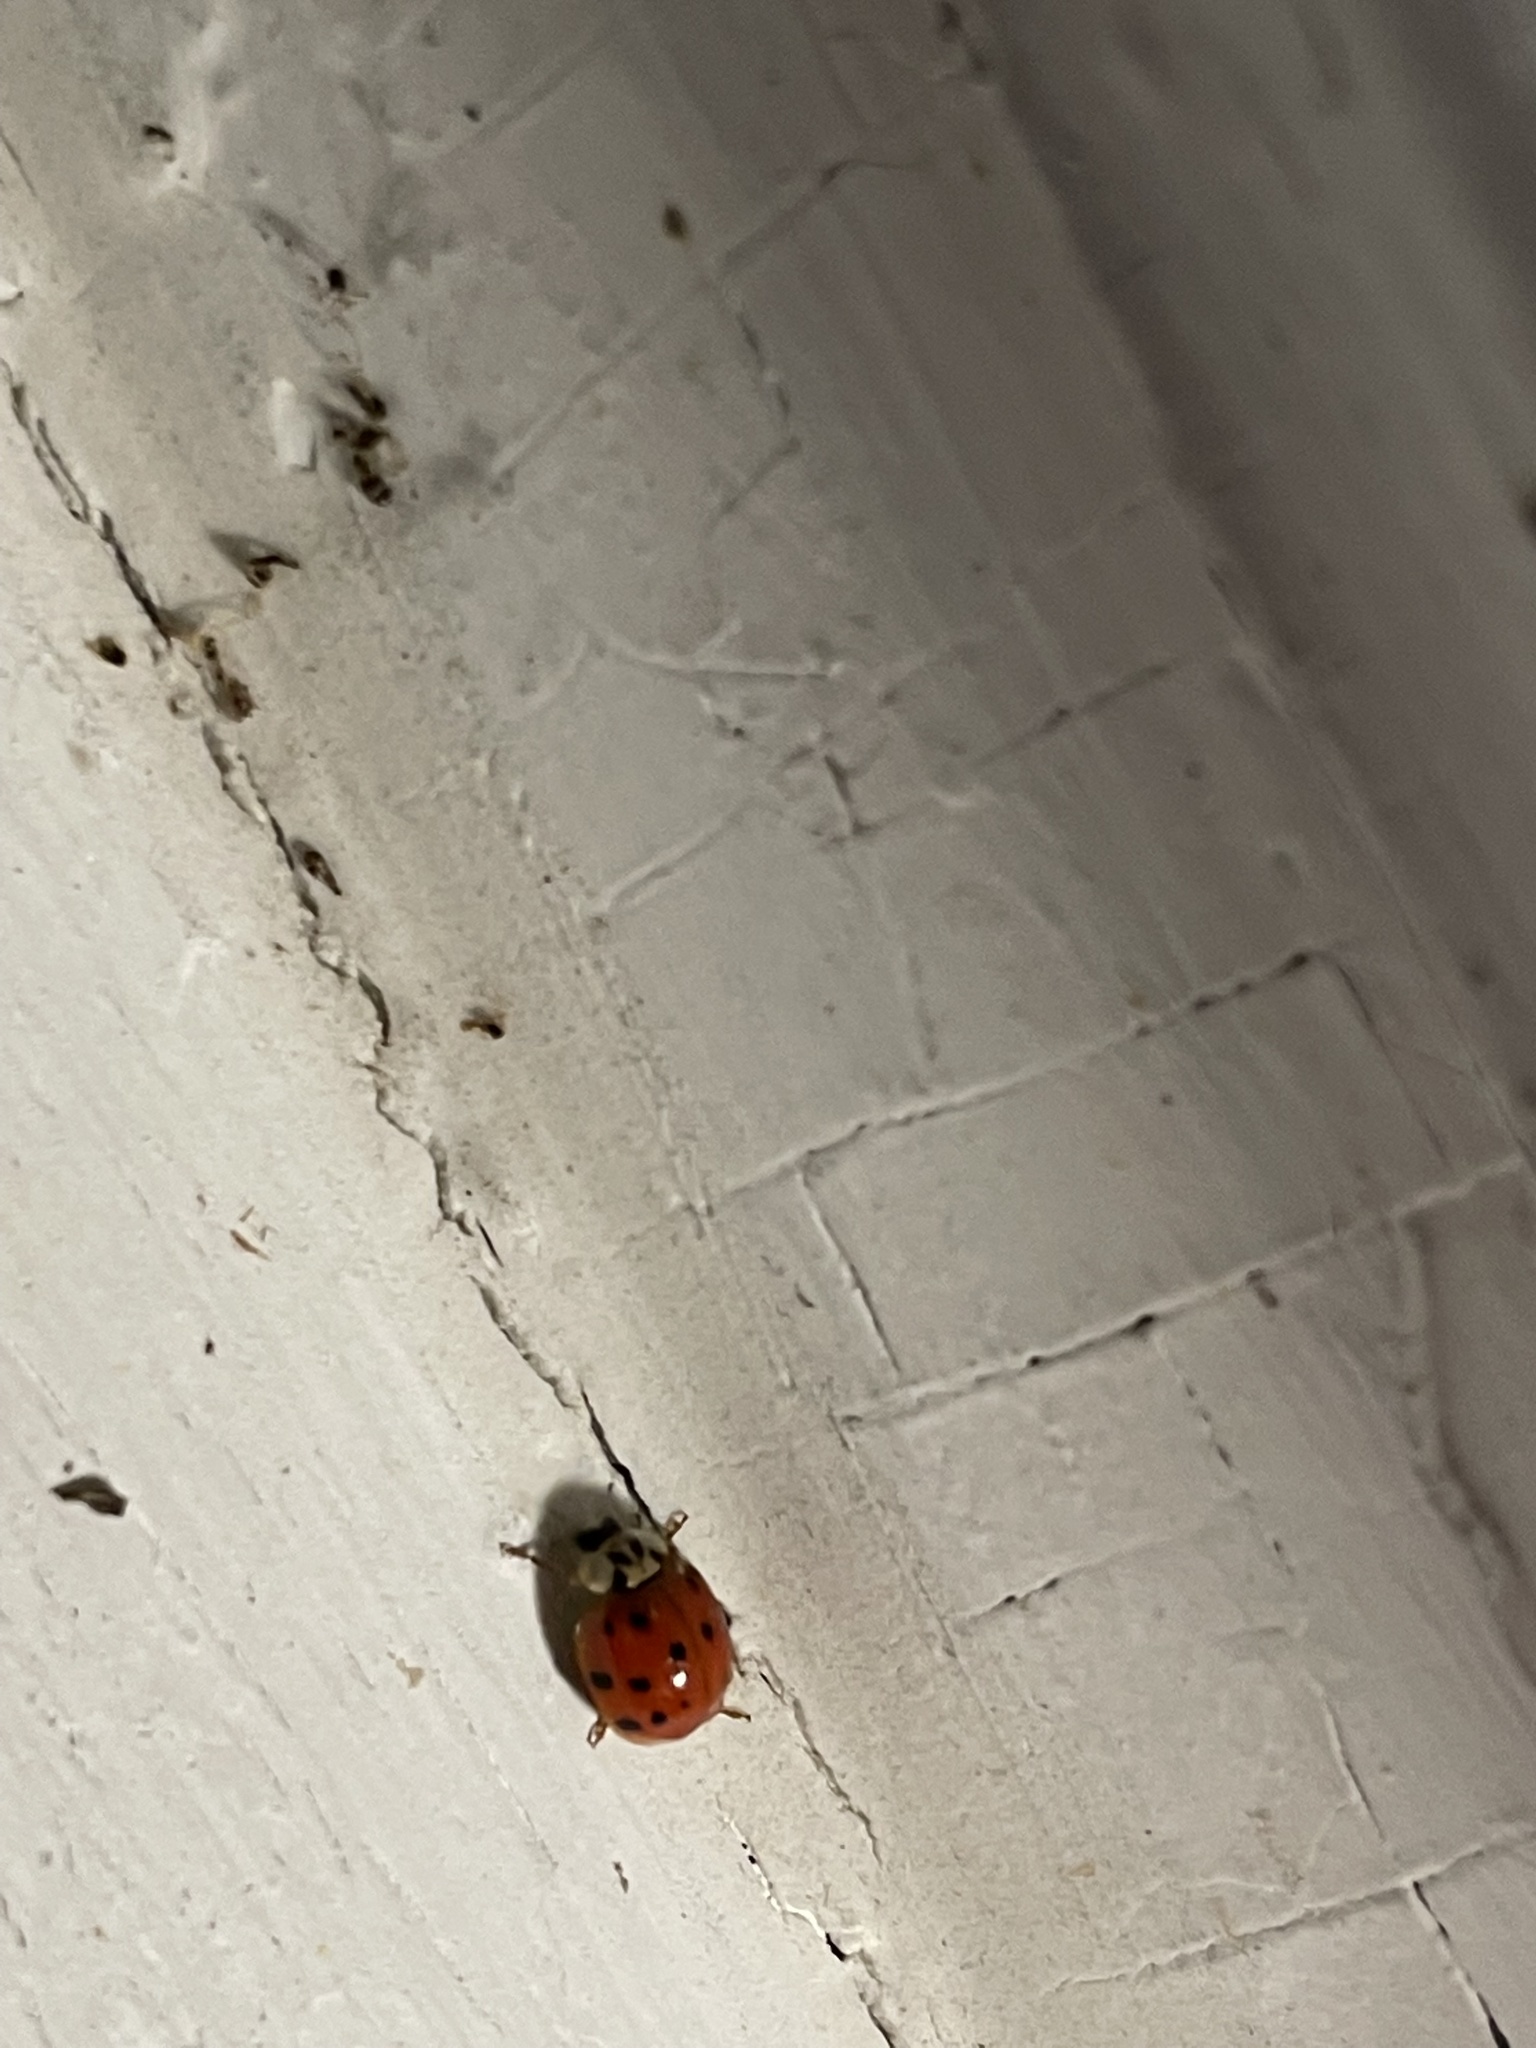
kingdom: Animalia
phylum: Arthropoda
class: Insecta
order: Coleoptera
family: Coccinellidae
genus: Harmonia
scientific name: Harmonia axyridis
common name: Harlequin ladybird
